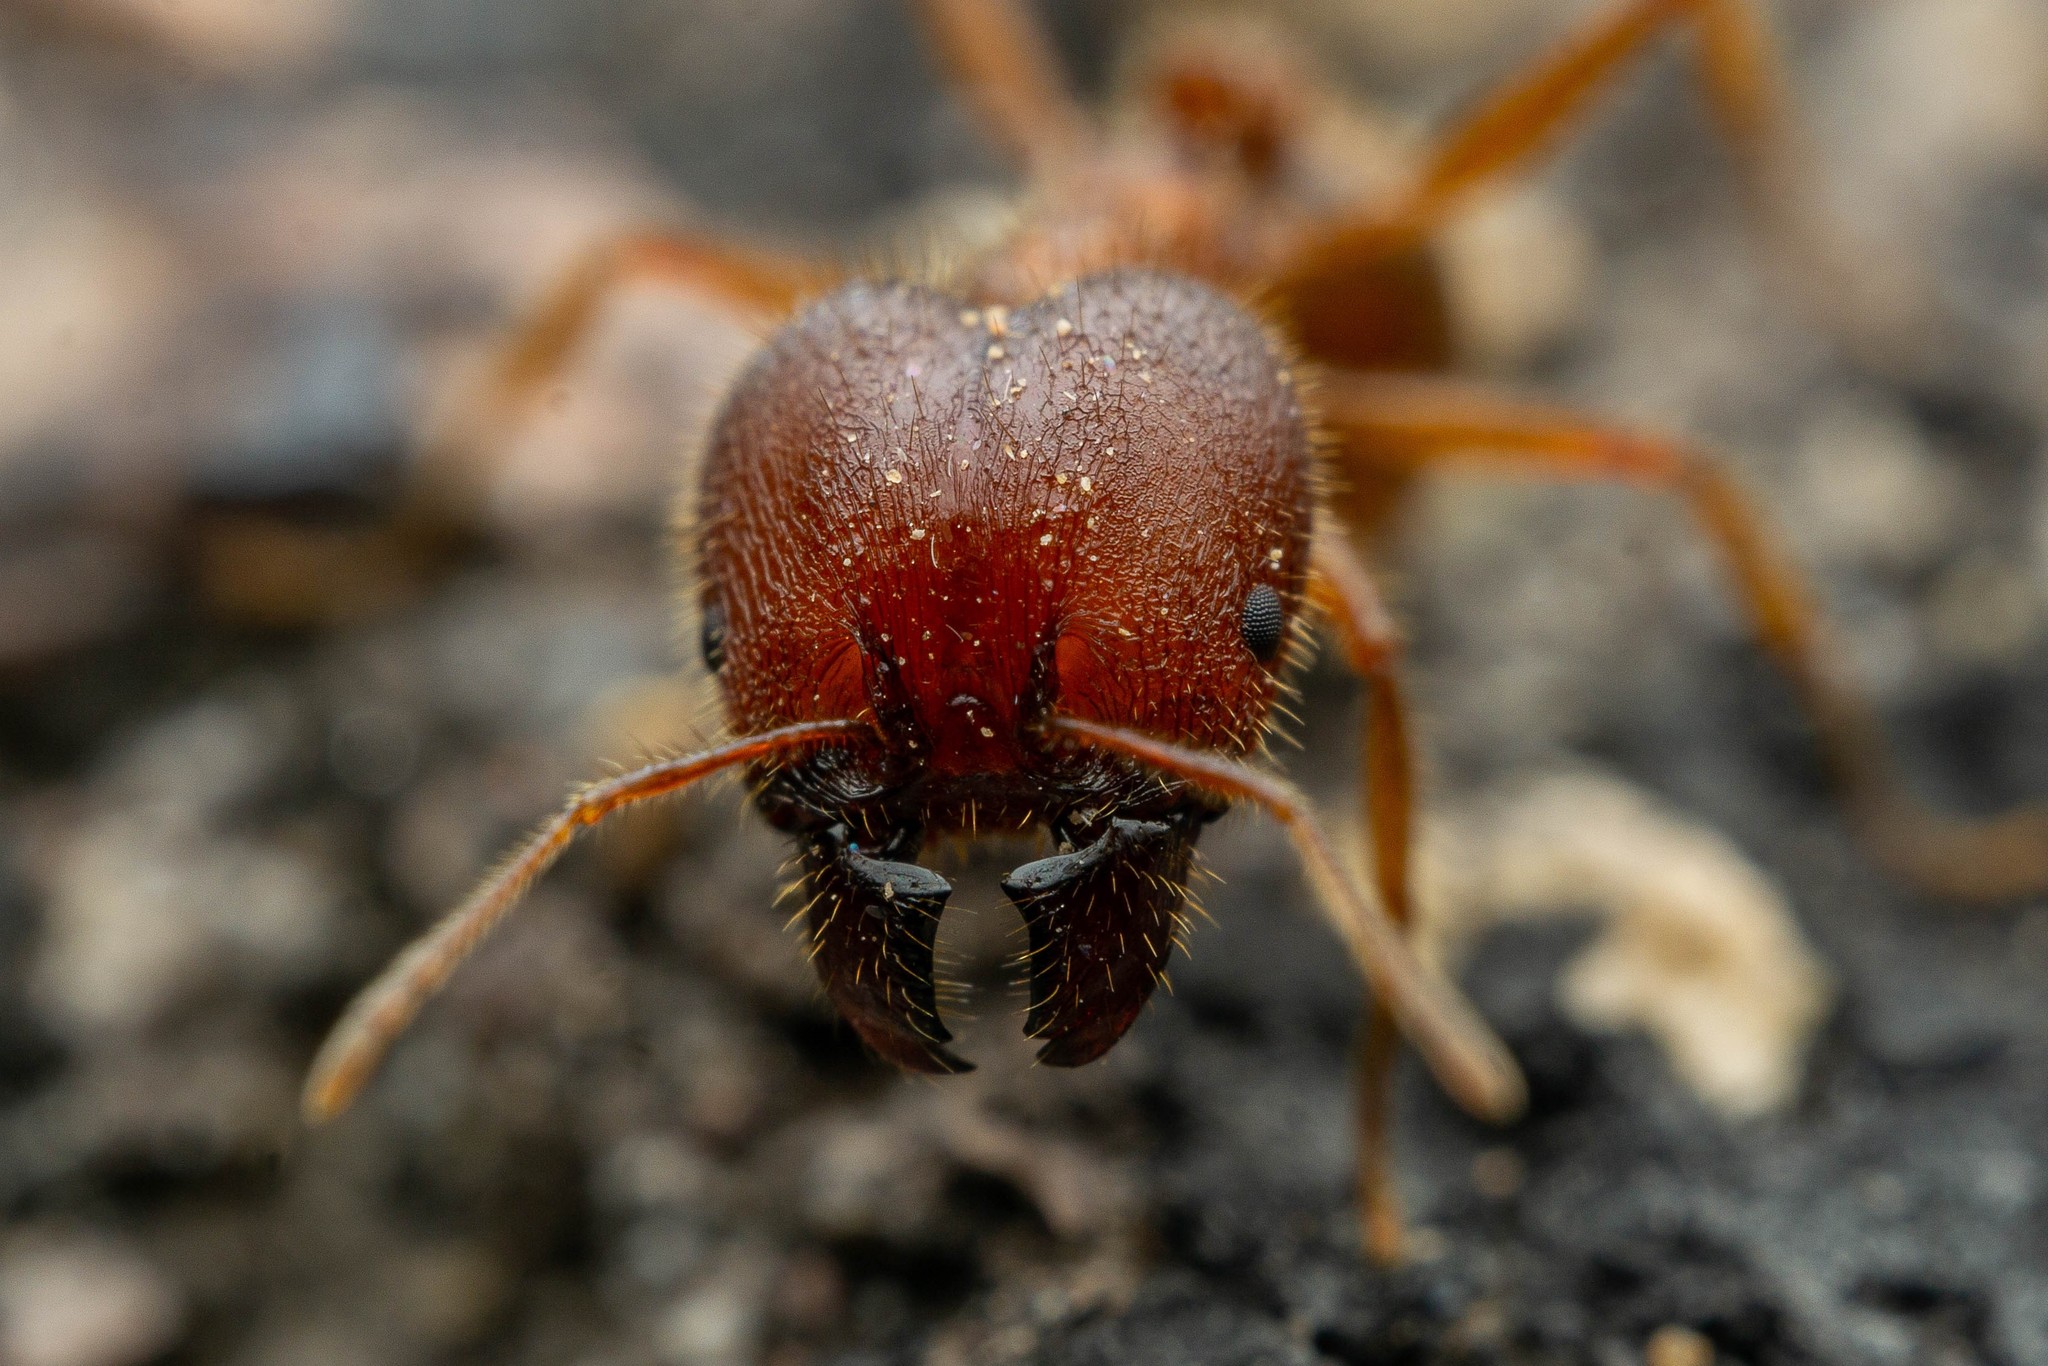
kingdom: Animalia
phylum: Arthropoda
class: Insecta
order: Hymenoptera
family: Formicidae
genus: Pheidole
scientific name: Pheidole obtusospinosa
